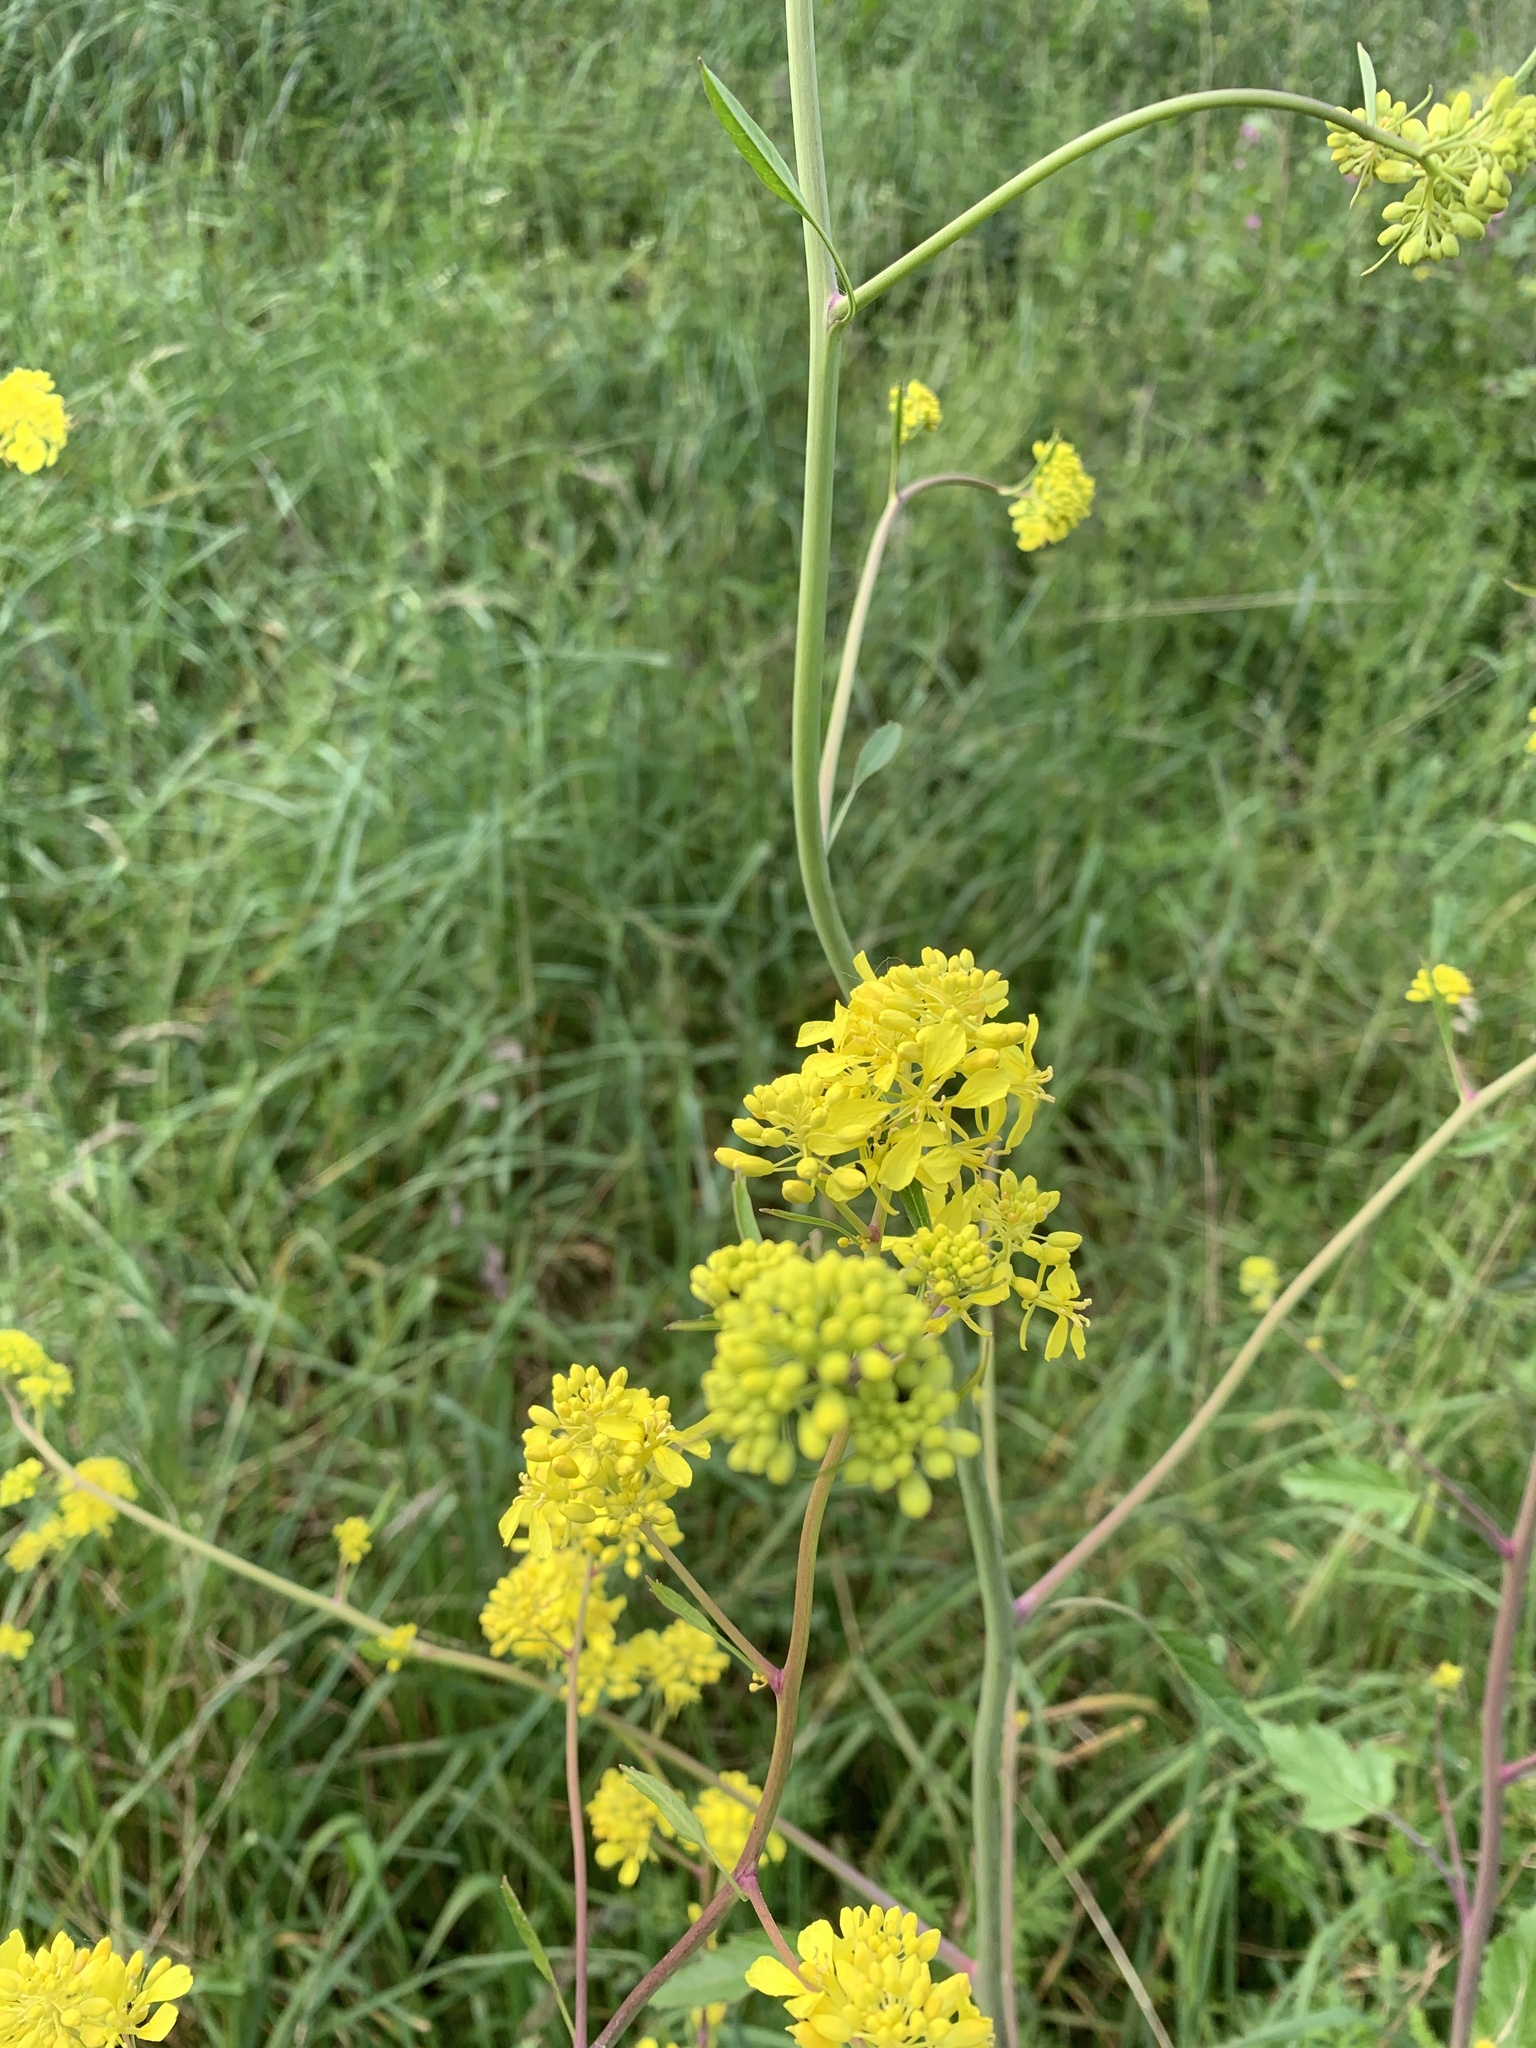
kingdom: Plantae
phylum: Tracheophyta
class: Magnoliopsida
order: Brassicales
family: Brassicaceae
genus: Brassica
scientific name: Brassica nigra
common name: Black mustard
